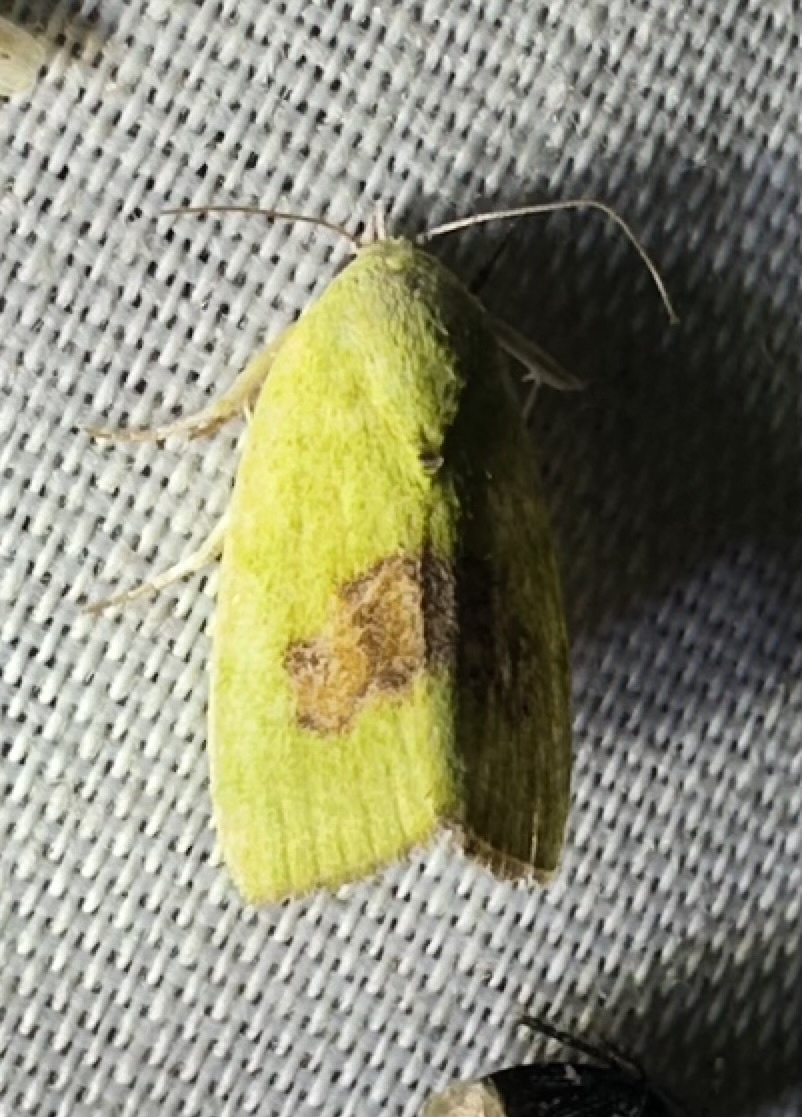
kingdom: Animalia
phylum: Arthropoda
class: Insecta
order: Lepidoptera
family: Nolidae
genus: Earias
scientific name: Earias biplaga
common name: Spiny bollworm
